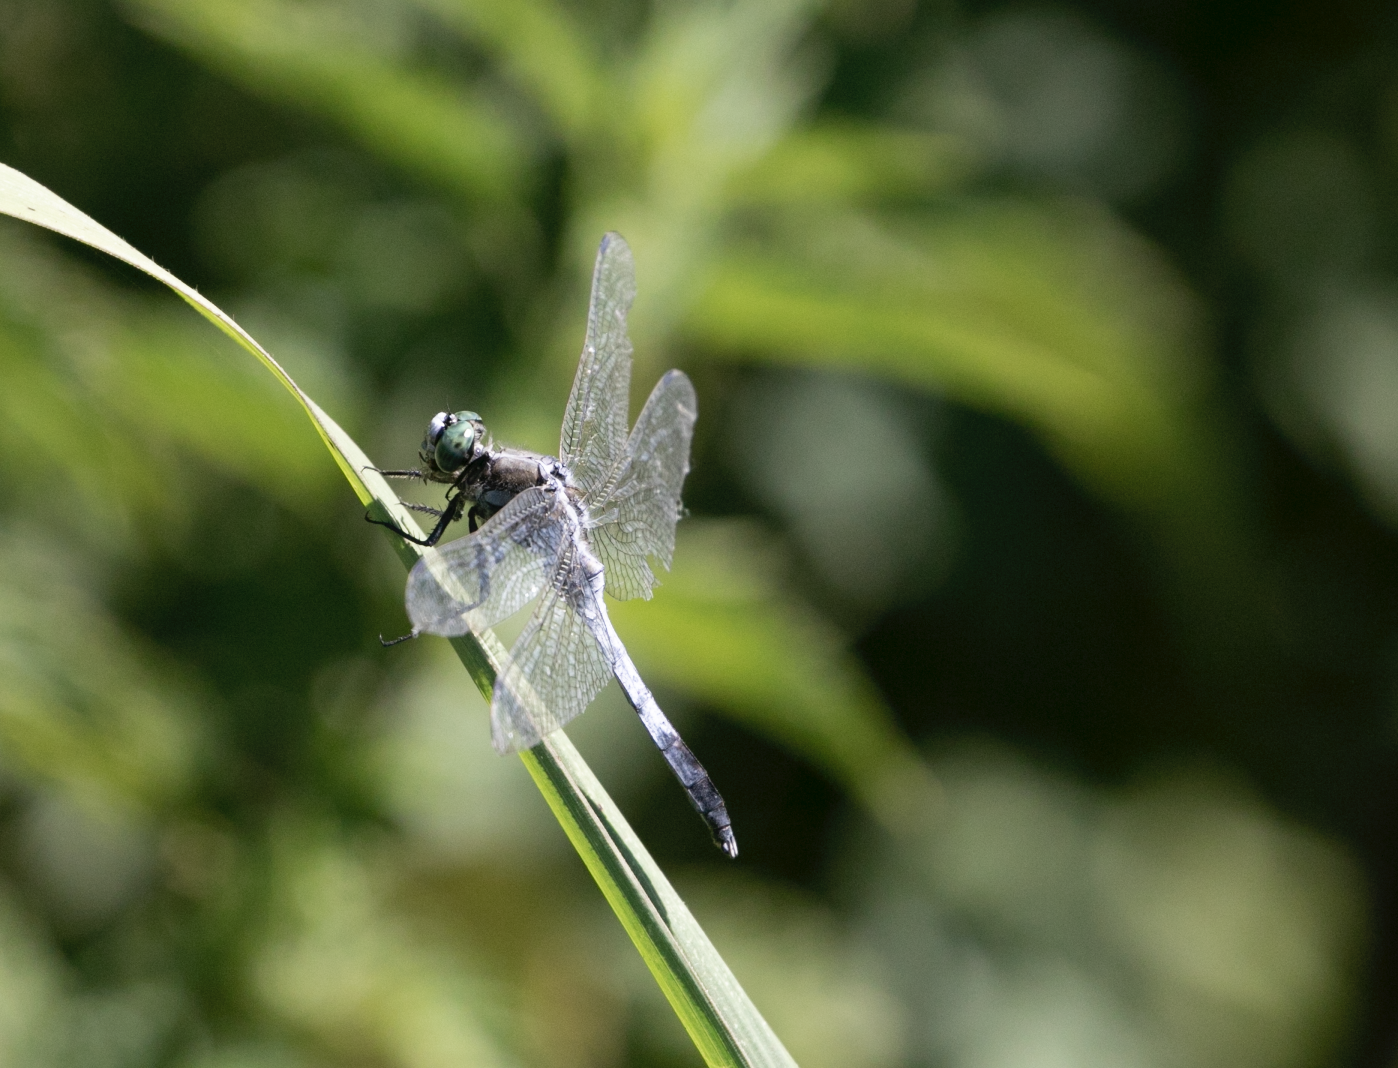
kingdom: Animalia
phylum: Arthropoda
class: Insecta
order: Odonata
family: Libellulidae
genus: Orthetrum
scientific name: Orthetrum albistylum
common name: White-tailed skimmer
